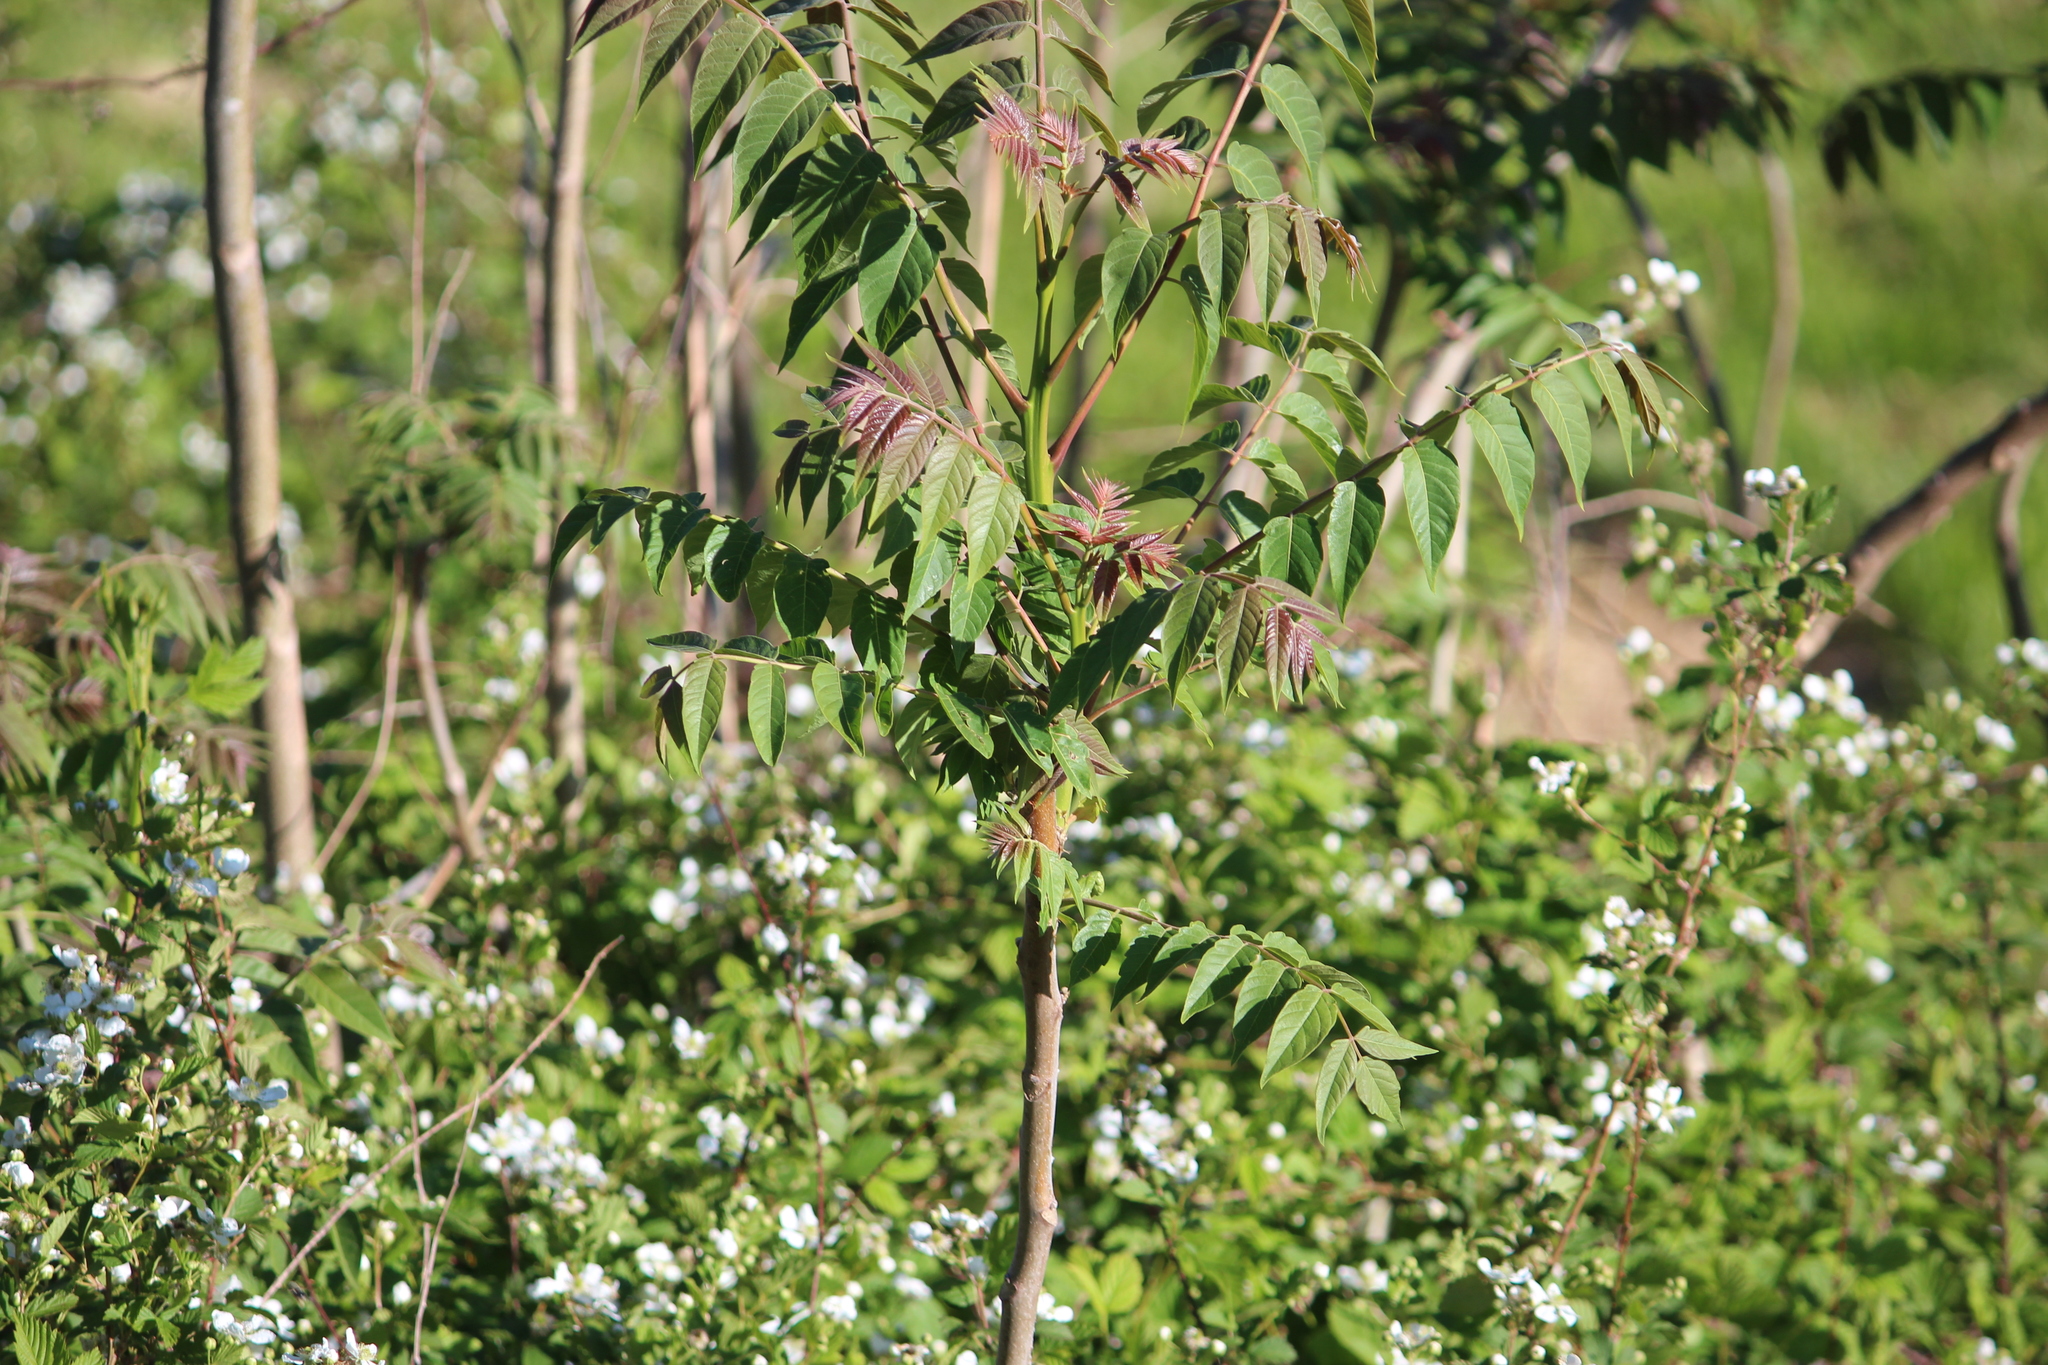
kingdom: Plantae
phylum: Tracheophyta
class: Magnoliopsida
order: Sapindales
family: Simaroubaceae
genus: Ailanthus
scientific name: Ailanthus altissima
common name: Tree-of-heaven
